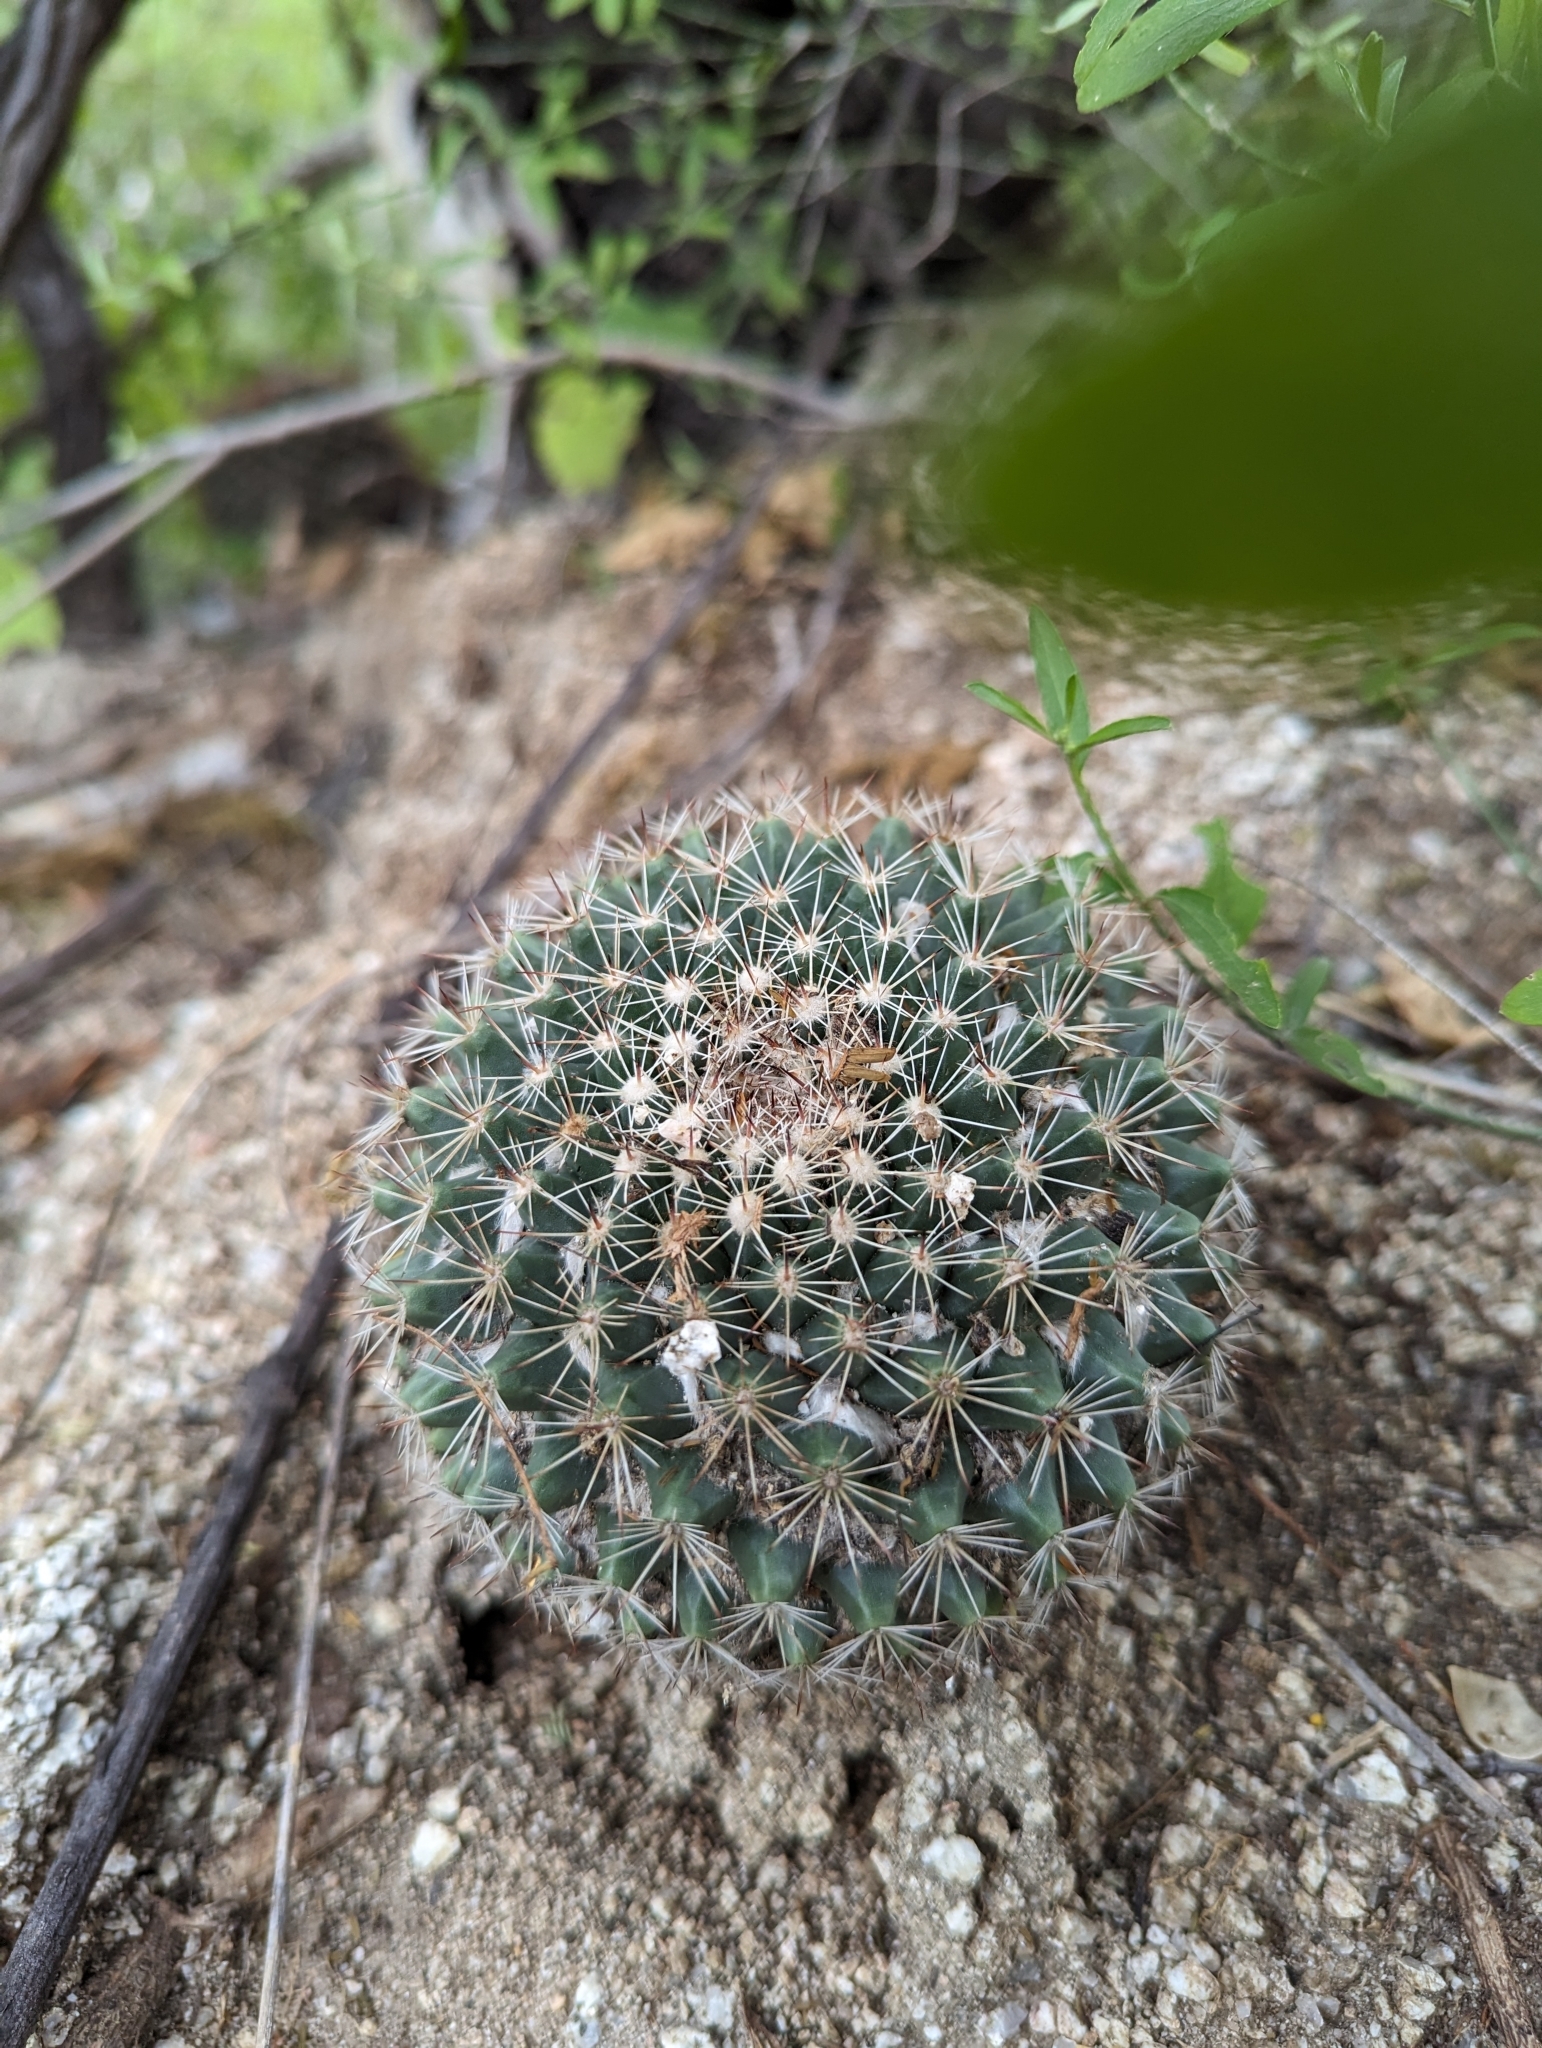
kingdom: Plantae
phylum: Tracheophyta
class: Magnoliopsida
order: Caryophyllales
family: Cactaceae
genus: Mammillaria
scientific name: Mammillaria petrophila
